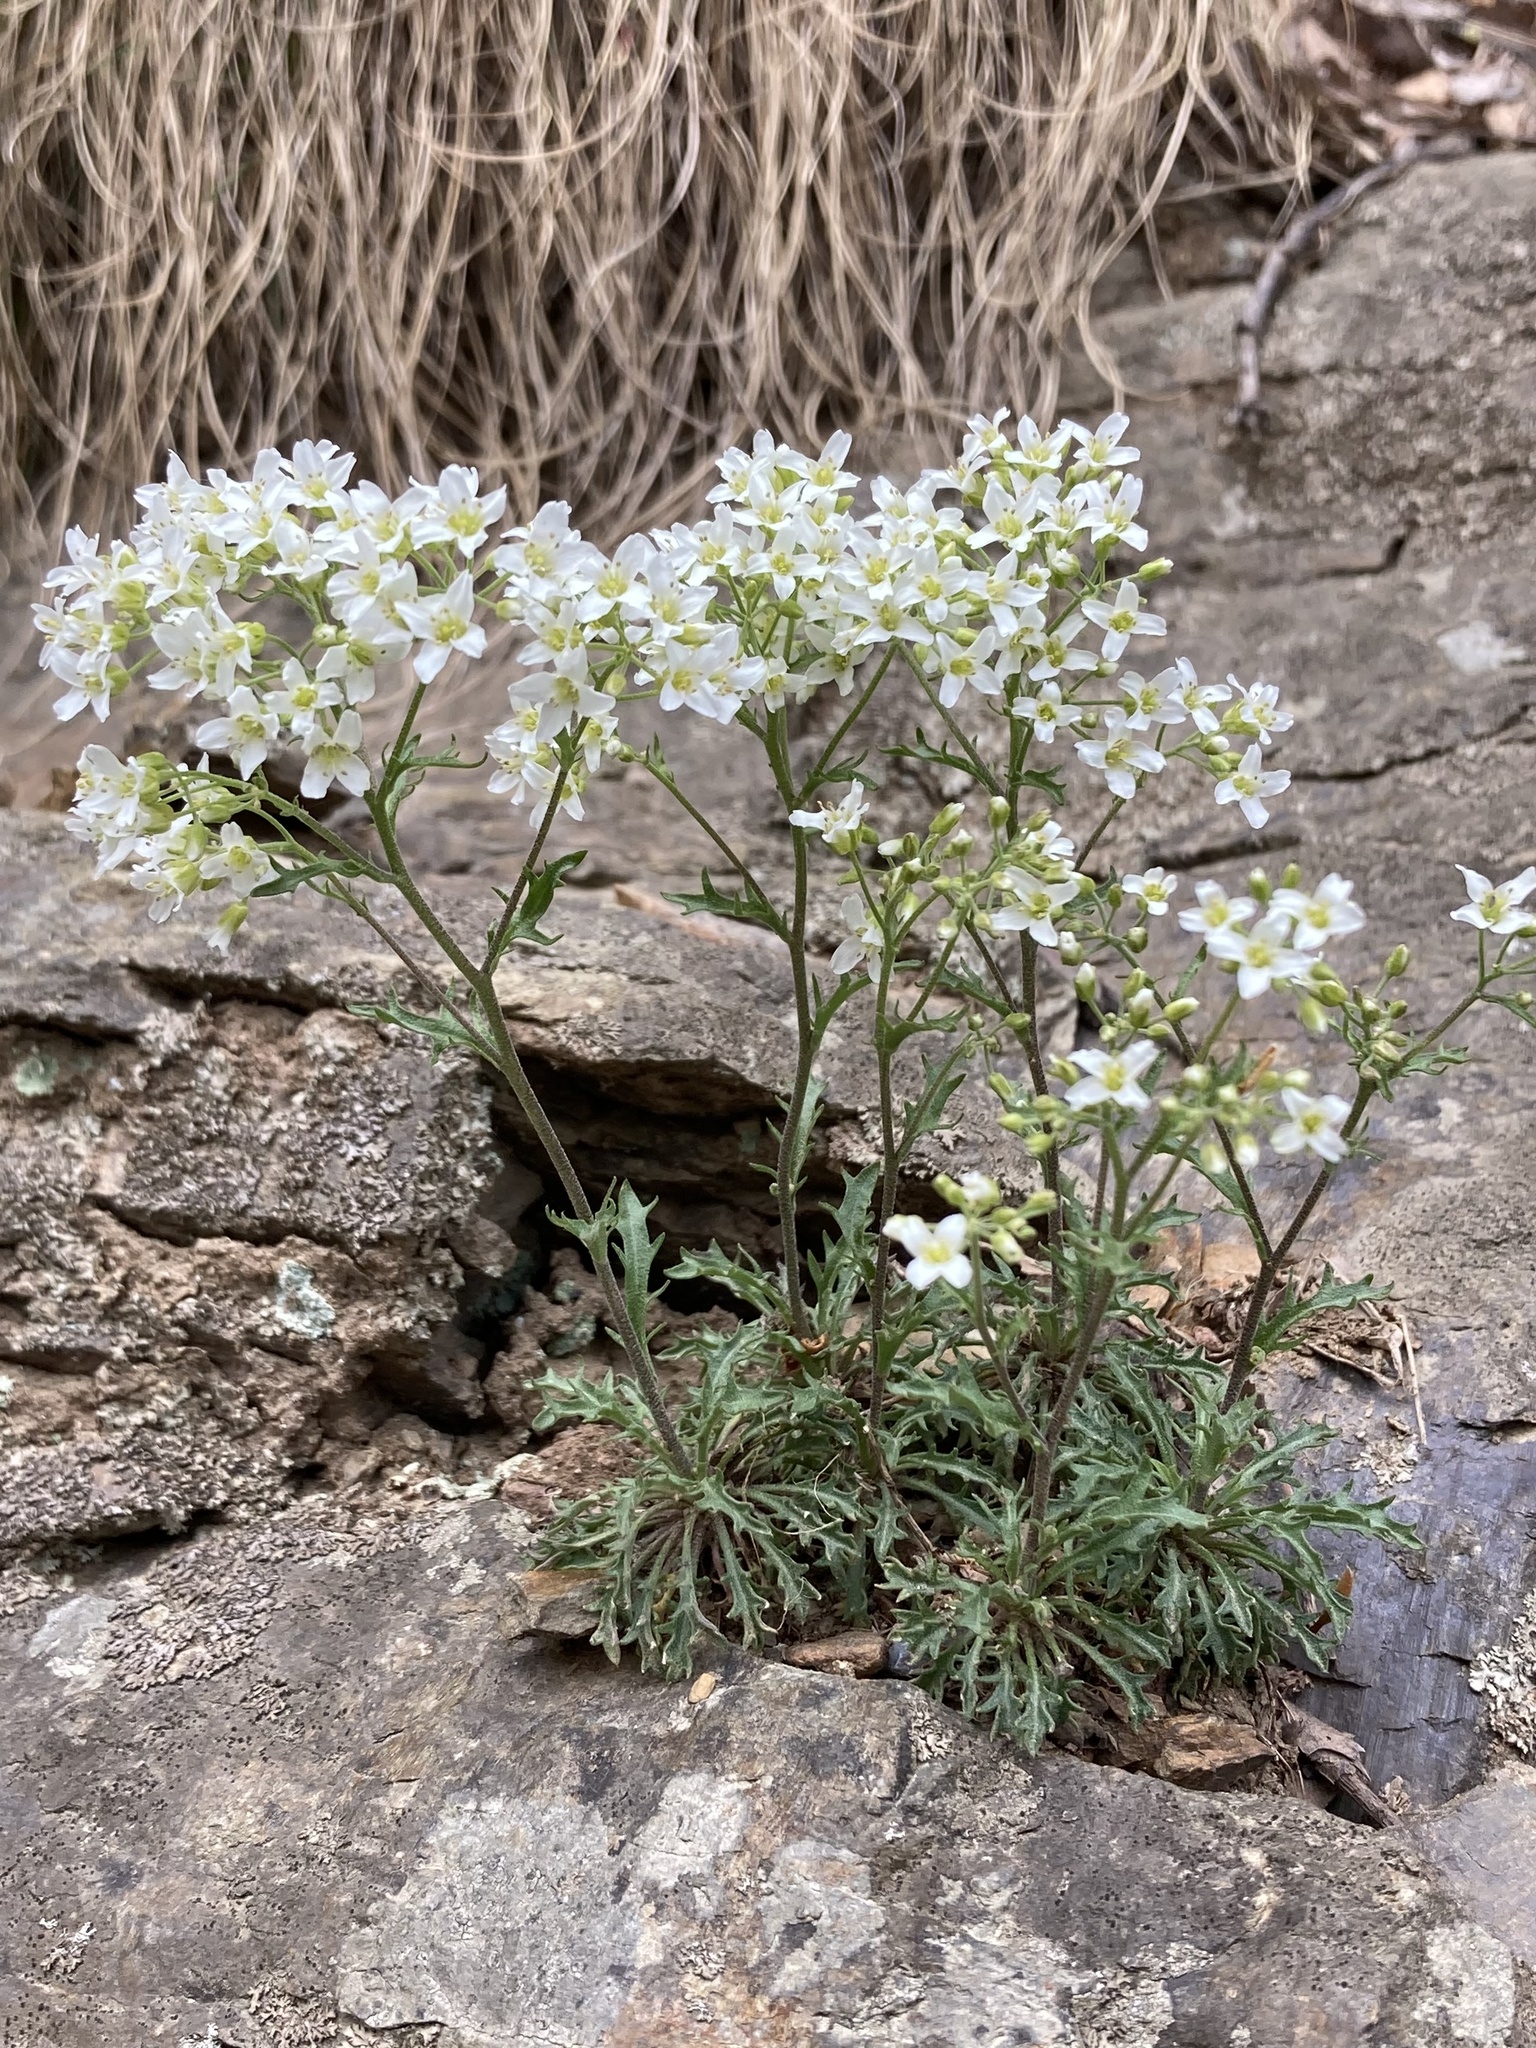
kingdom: Plantae
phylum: Tracheophyta
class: Magnoliopsida
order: Brassicales
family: Brassicaceae
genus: Draba
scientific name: Draba ramosissima
